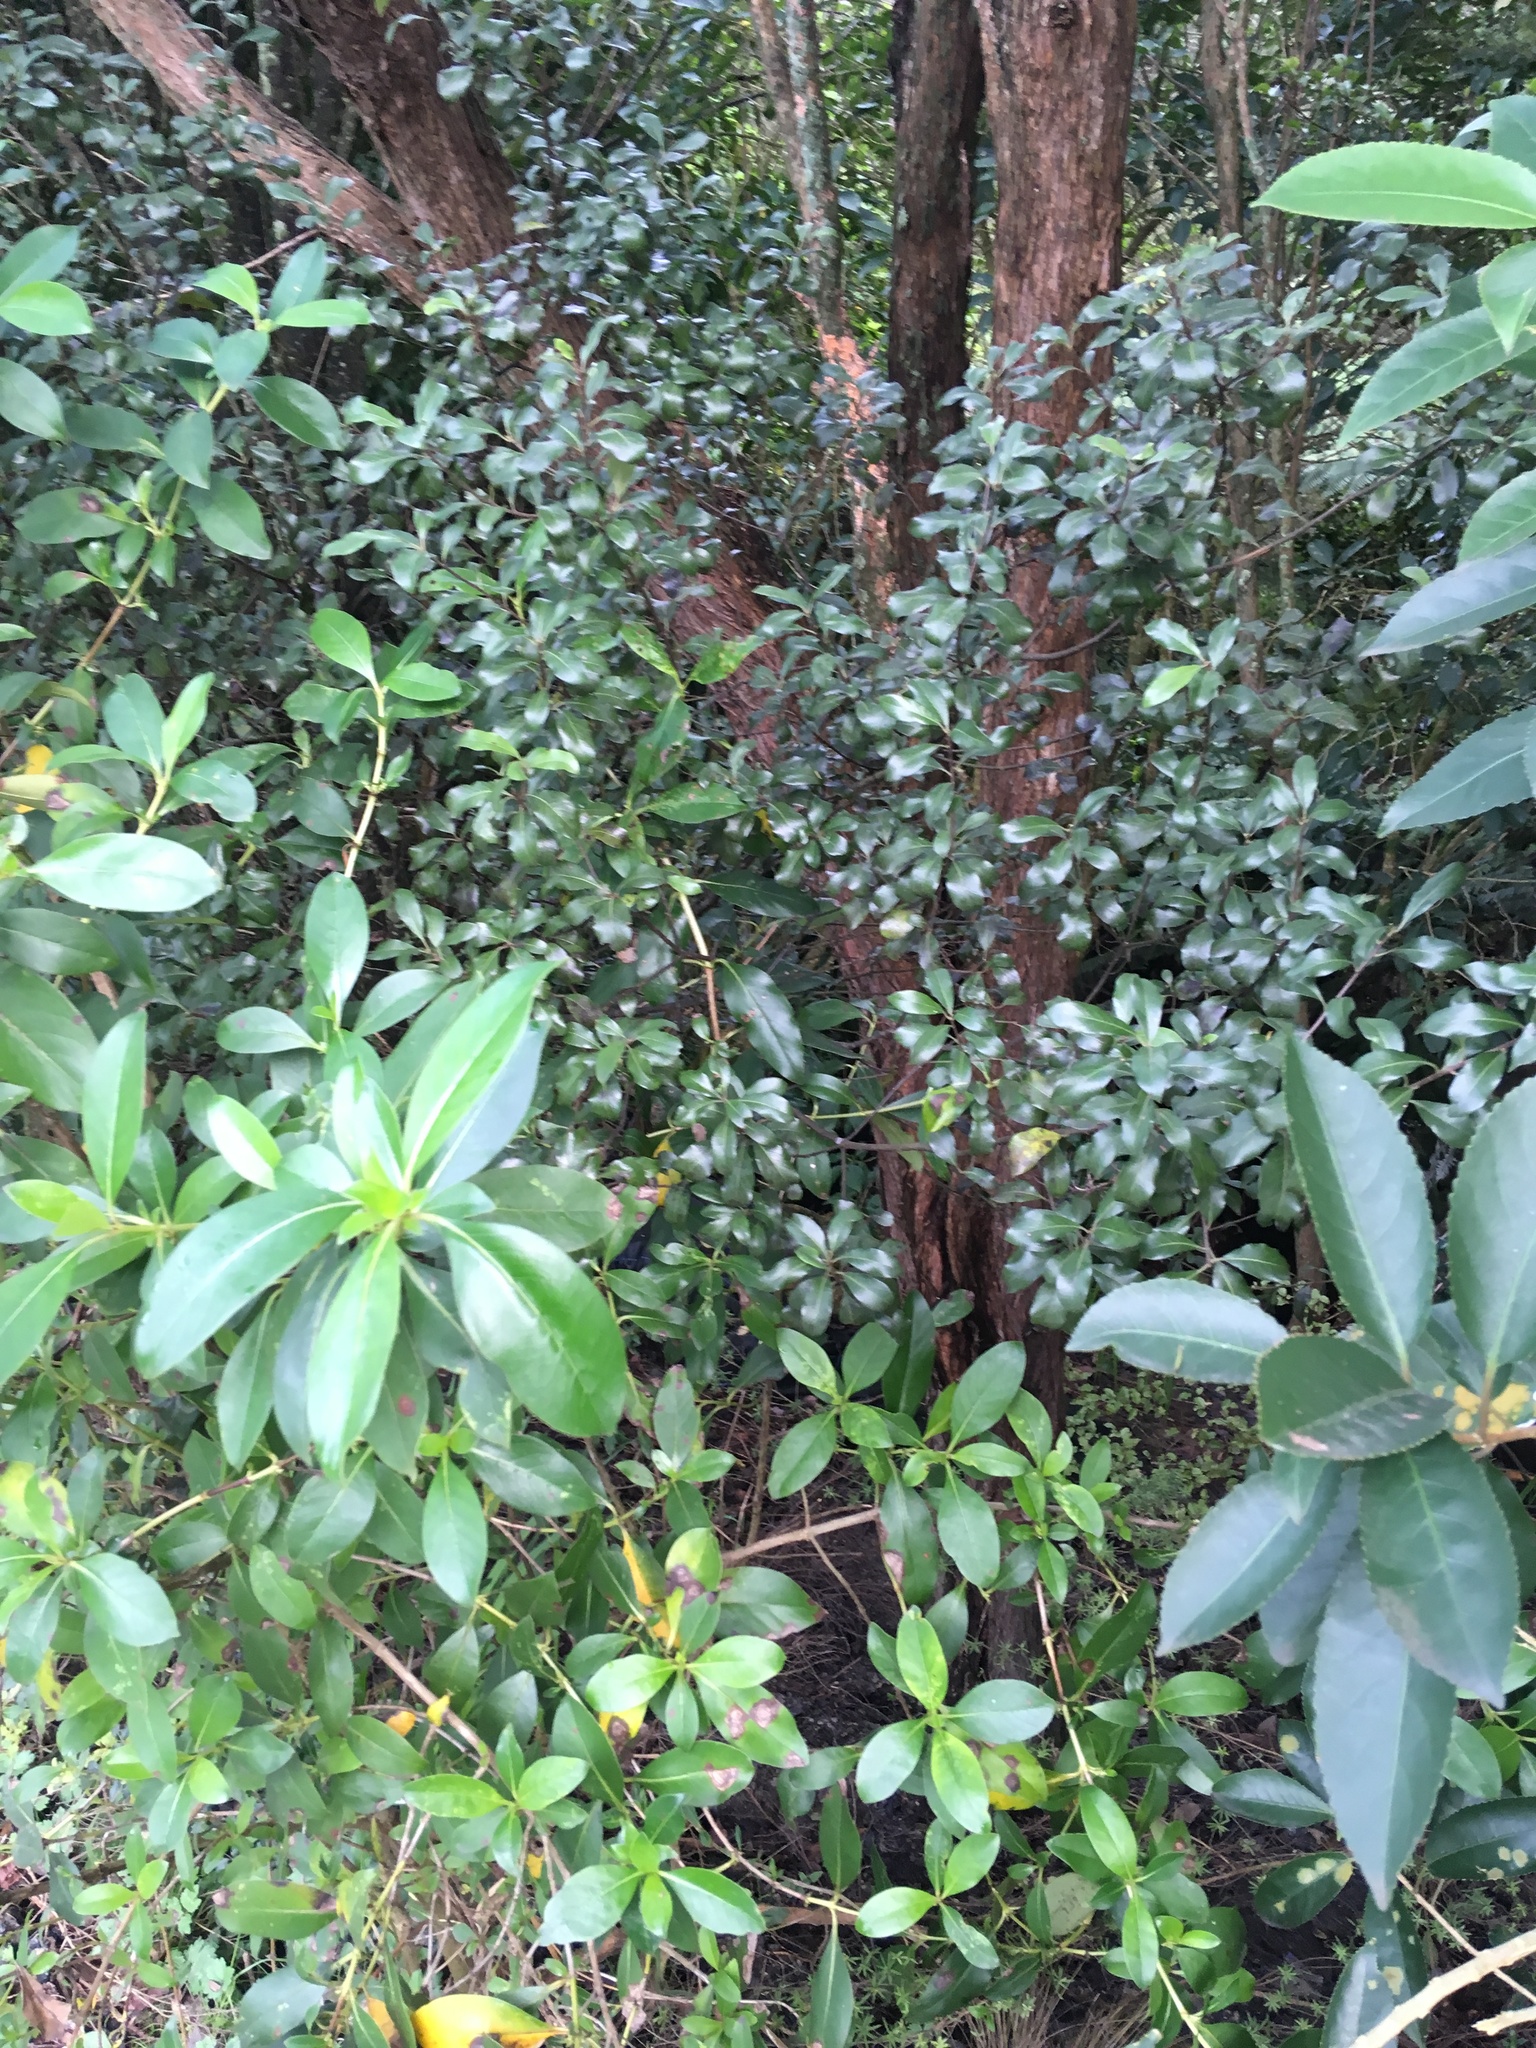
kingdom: Plantae
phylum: Tracheophyta
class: Magnoliopsida
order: Apiales
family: Pittosporaceae
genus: Pittosporum
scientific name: Pittosporum tenuifolium
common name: Kohuhu
